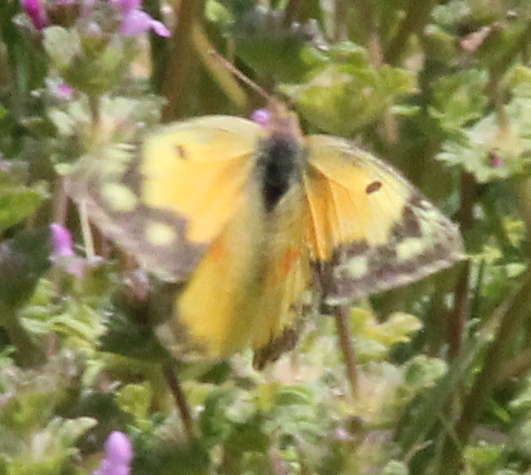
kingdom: Animalia
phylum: Arthropoda
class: Insecta
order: Lepidoptera
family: Pieridae
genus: Colias
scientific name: Colias eurytheme
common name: Alfalfa butterfly
